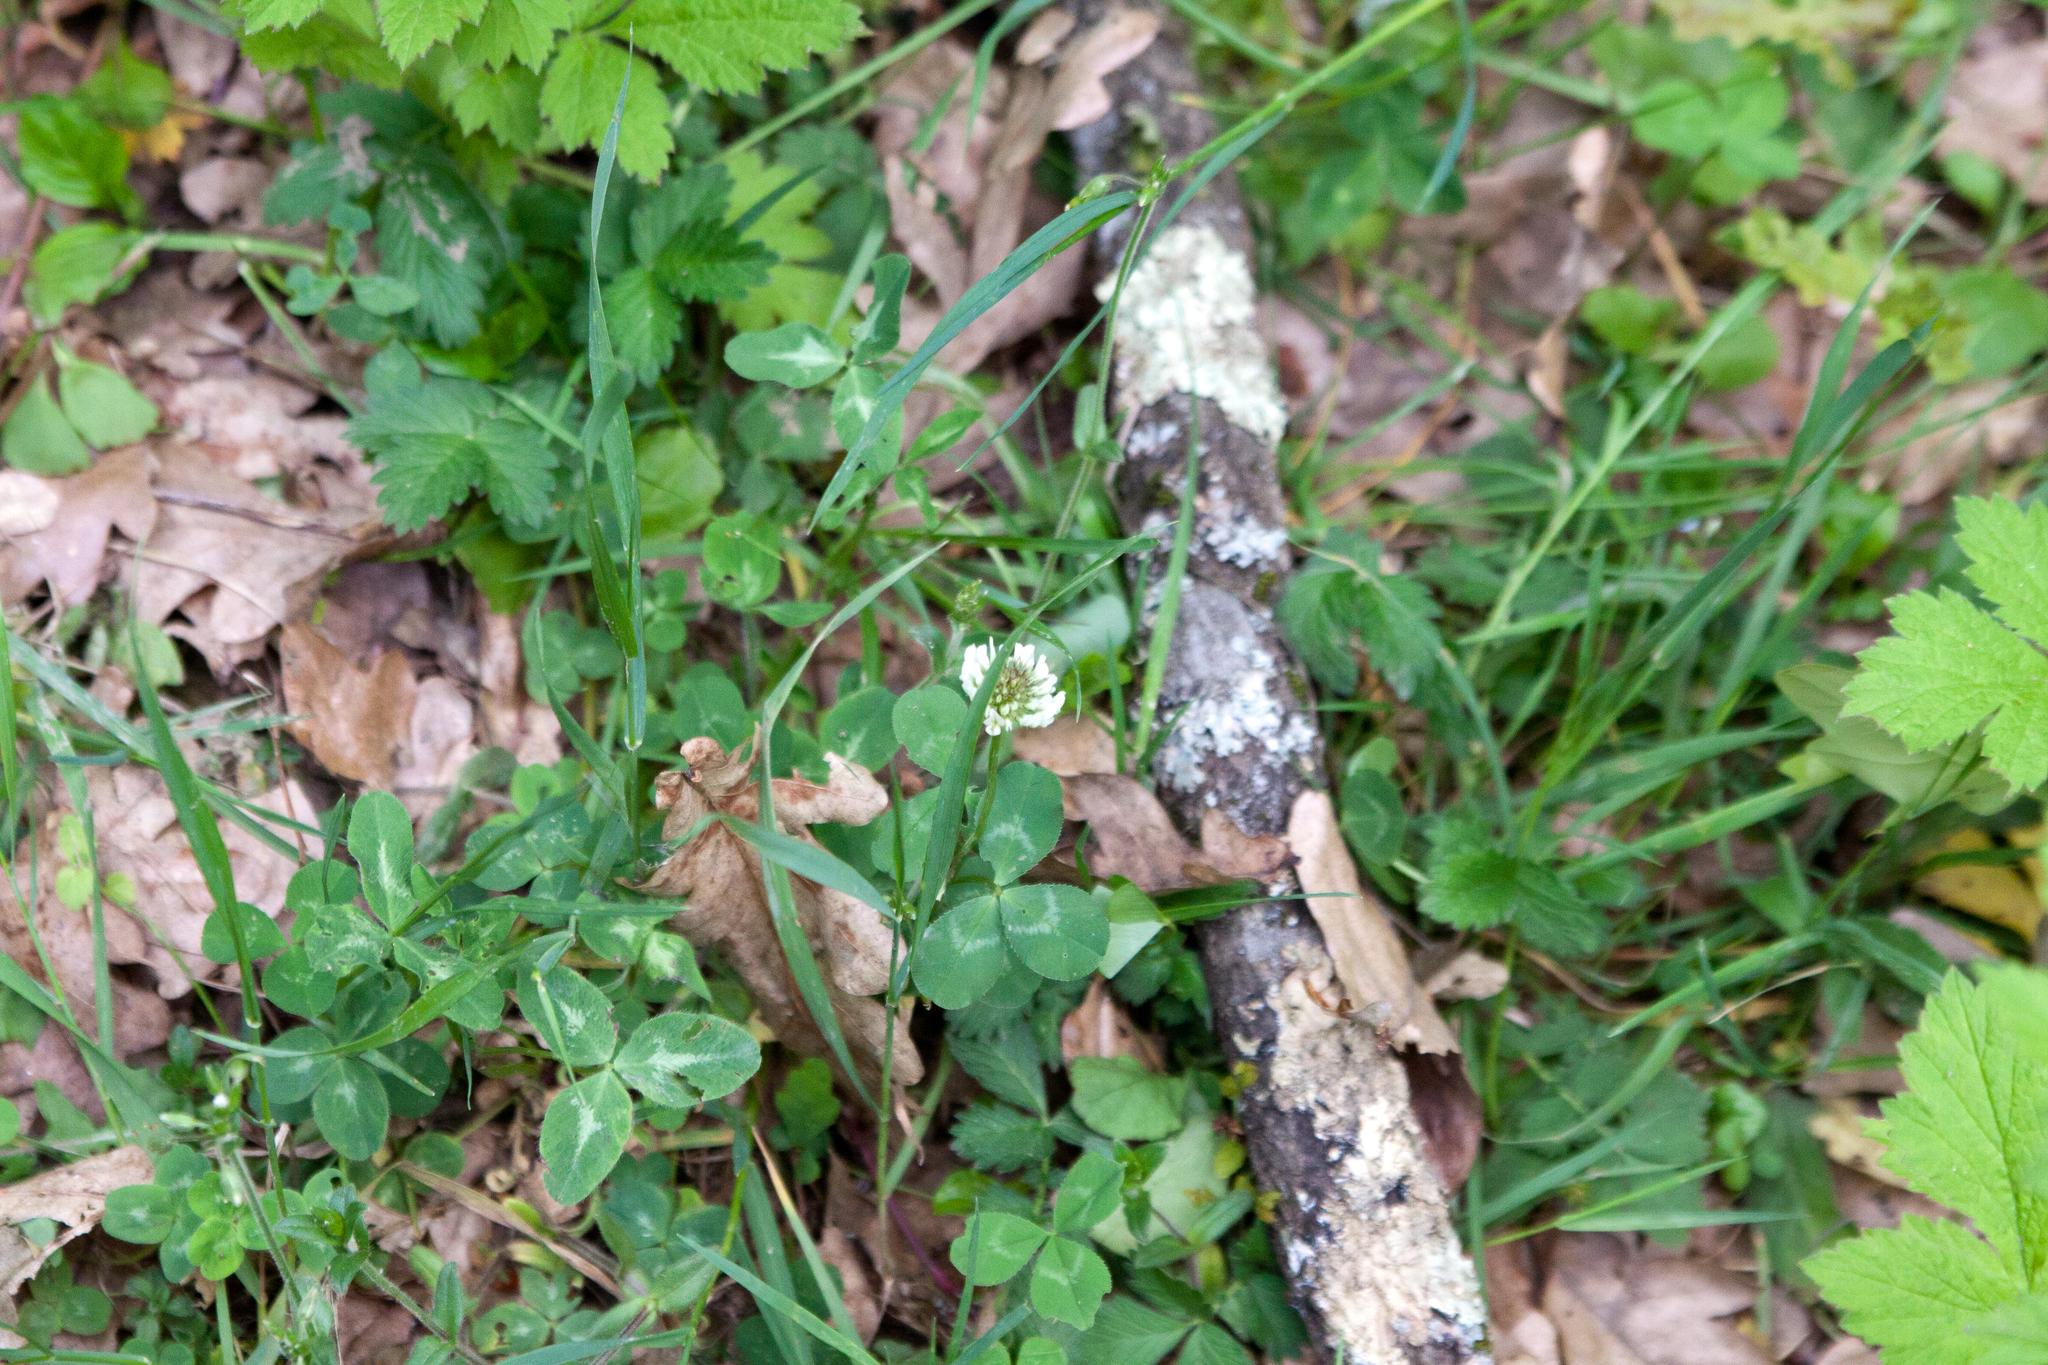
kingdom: Plantae
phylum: Tracheophyta
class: Magnoliopsida
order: Fabales
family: Fabaceae
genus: Trifolium
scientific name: Trifolium repens
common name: White clover
